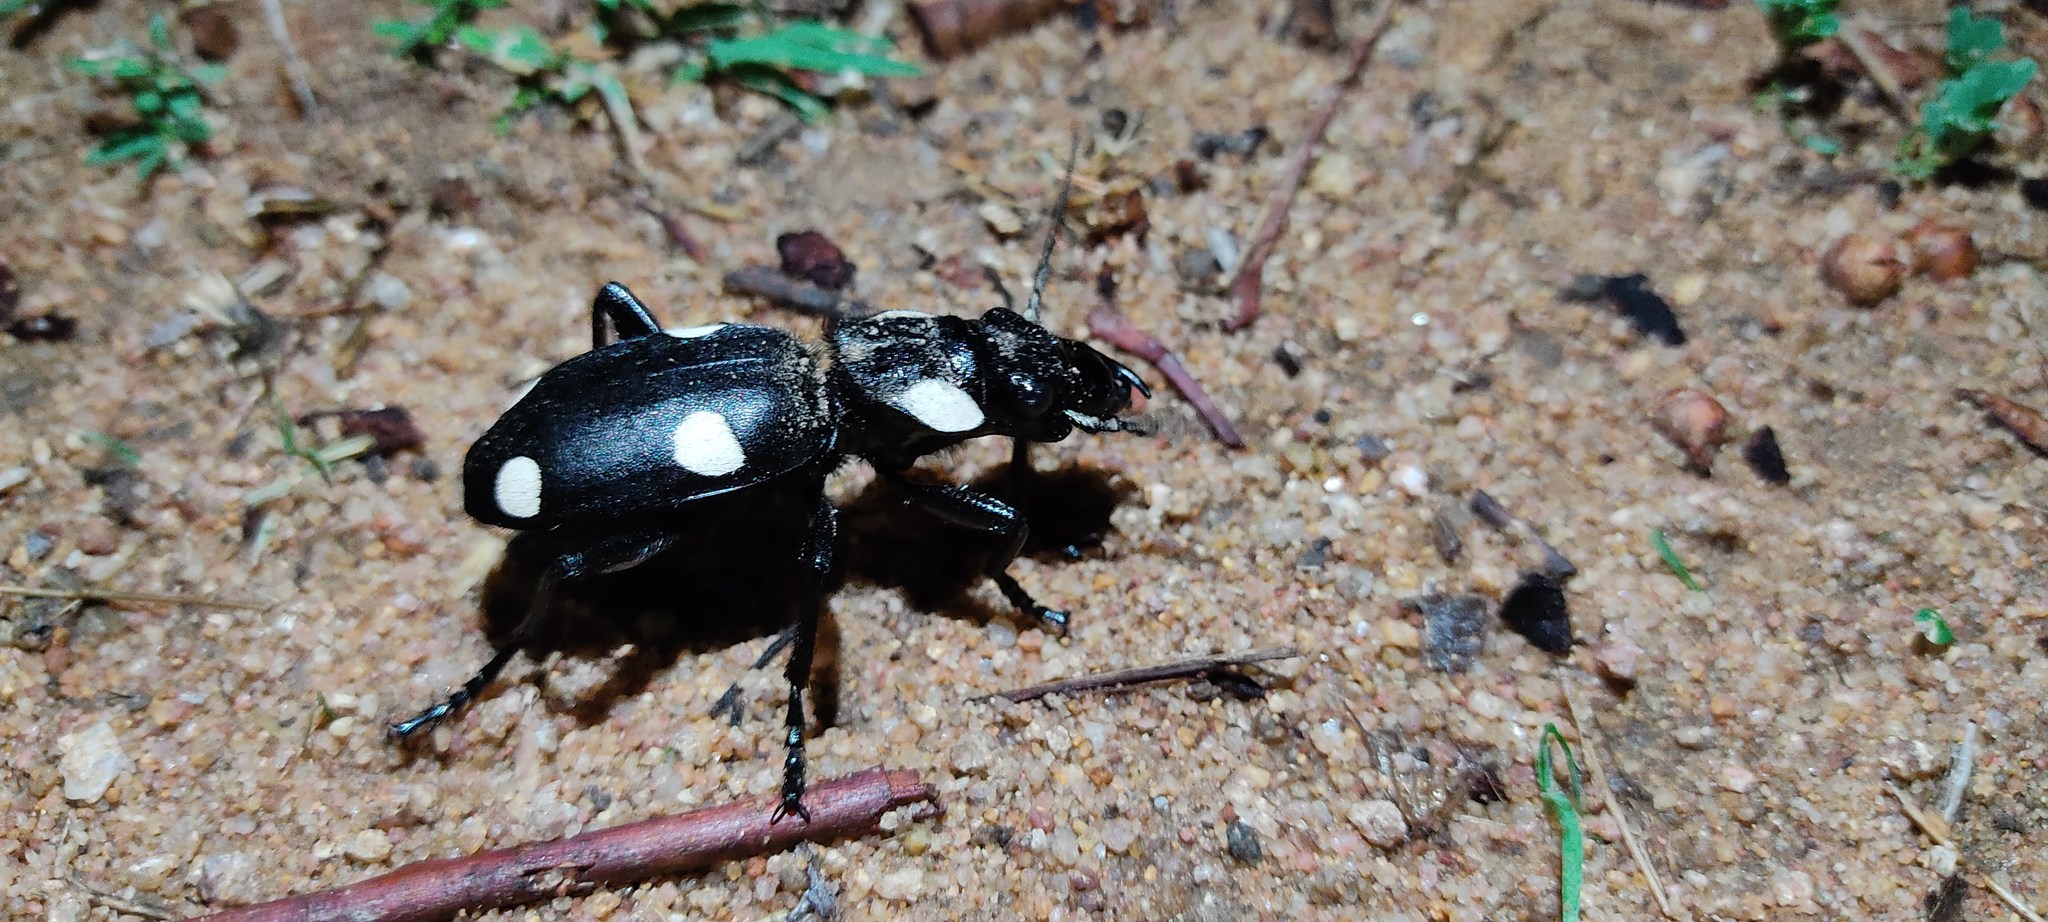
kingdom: Animalia
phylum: Arthropoda
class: Insecta
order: Coleoptera
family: Carabidae
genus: Anthia
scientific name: Anthia sexguttata
